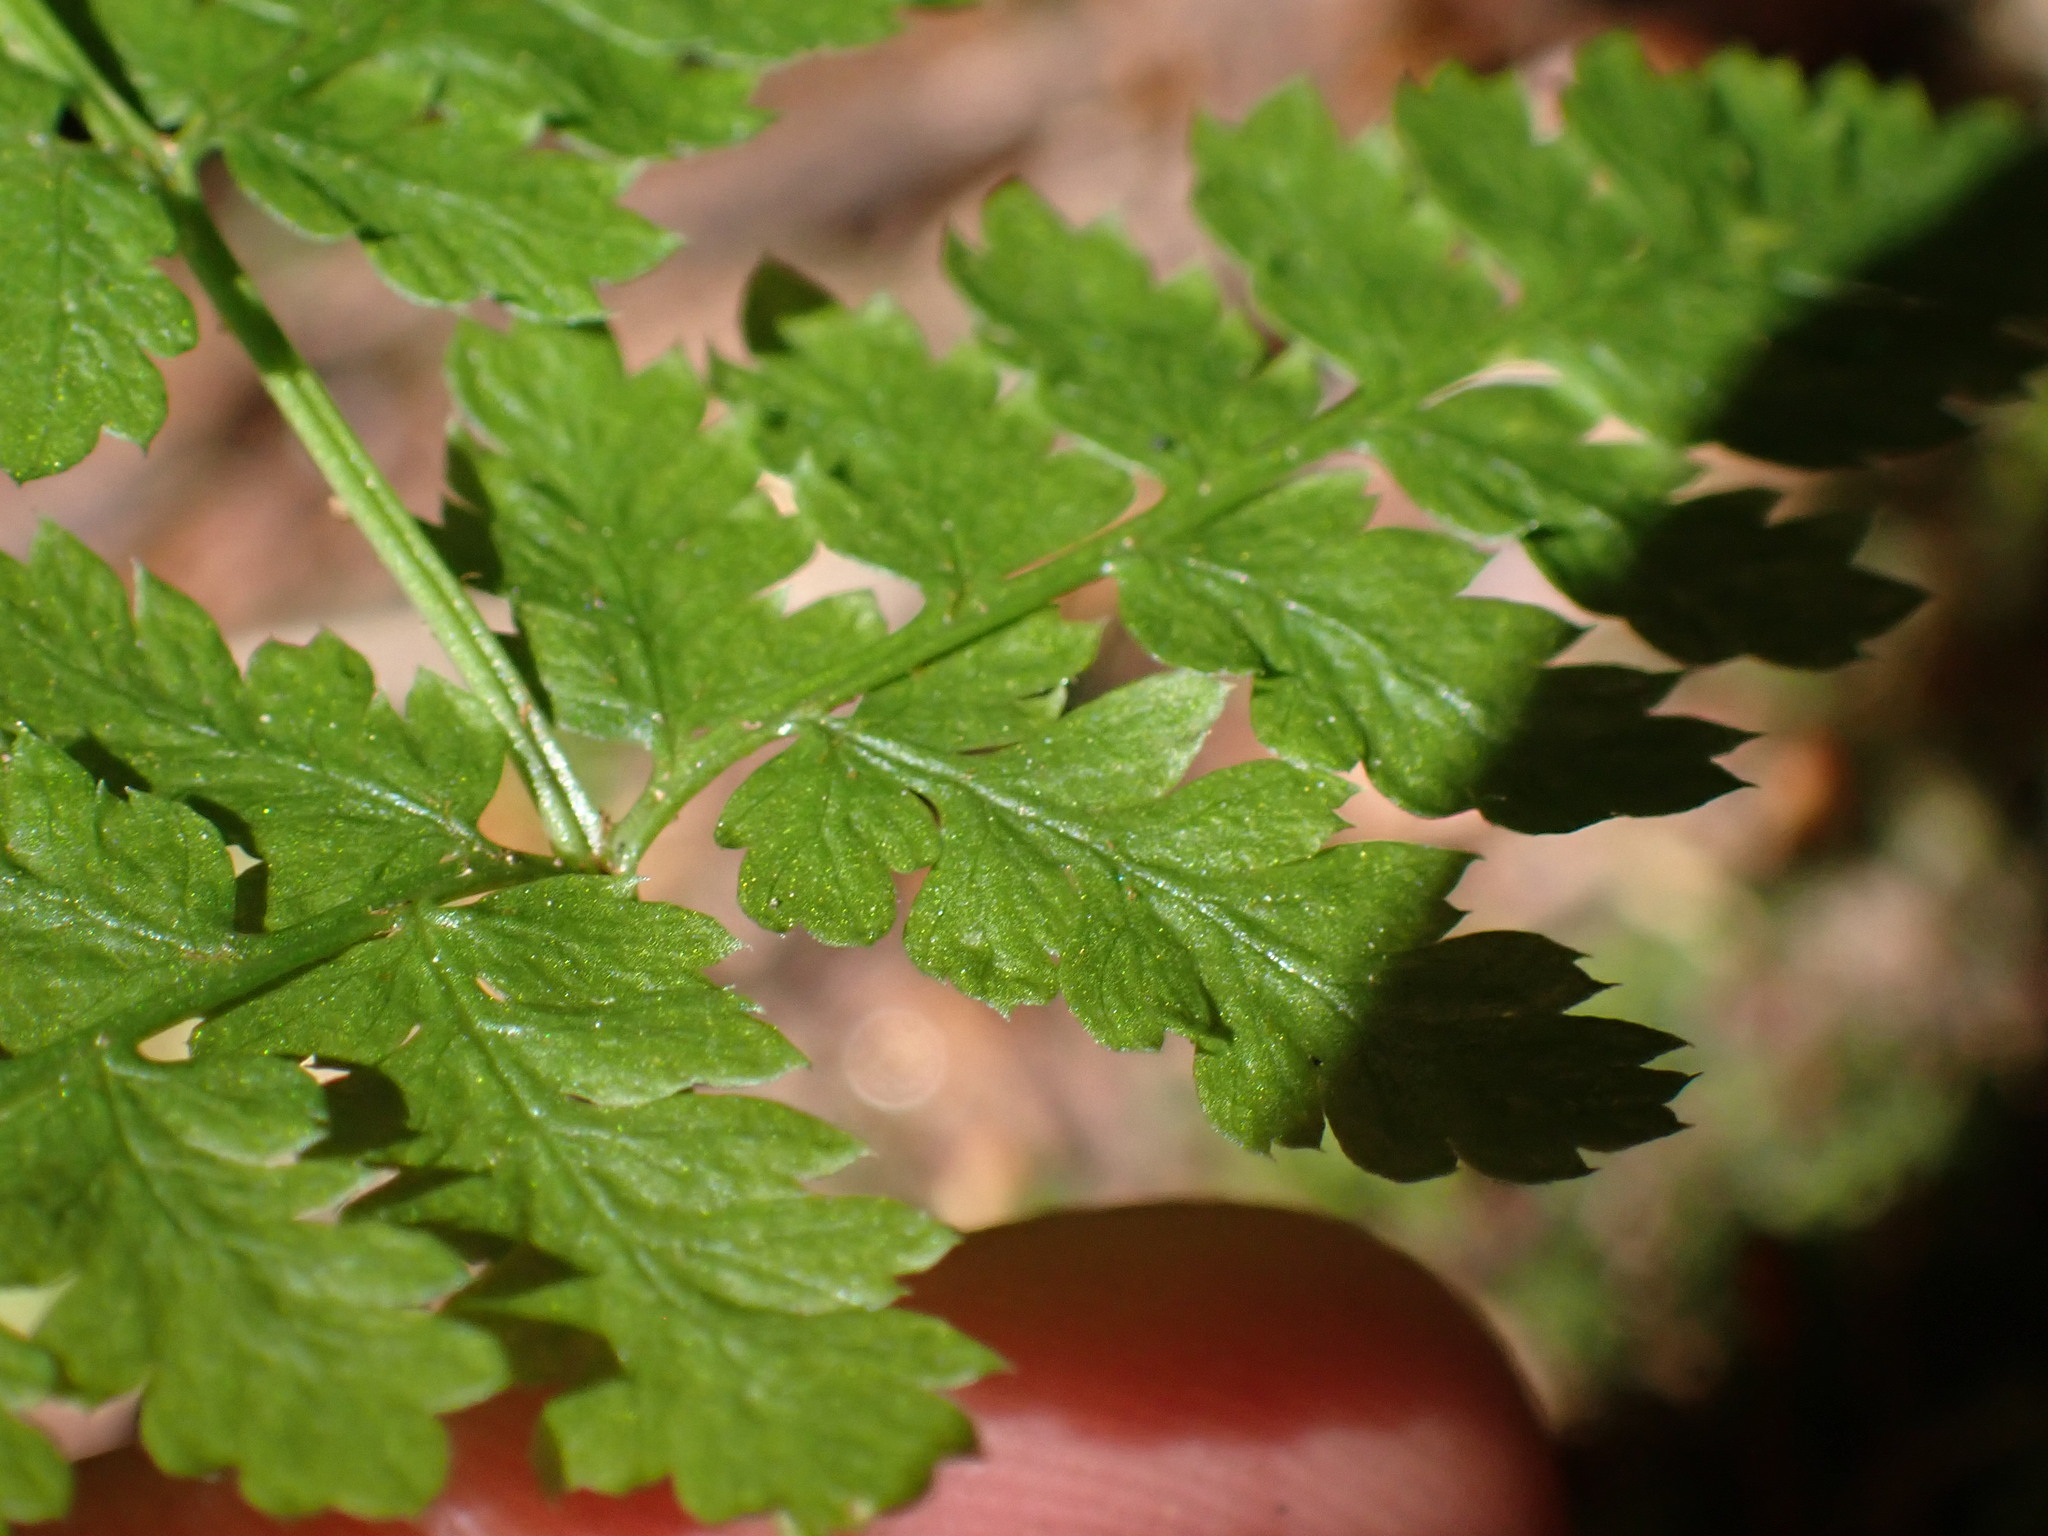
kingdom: Plantae
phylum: Tracheophyta
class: Polypodiopsida
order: Polypodiales
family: Dryopteridaceae
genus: Dryopteris
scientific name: Dryopteris expansa
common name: Northern buckler fern
